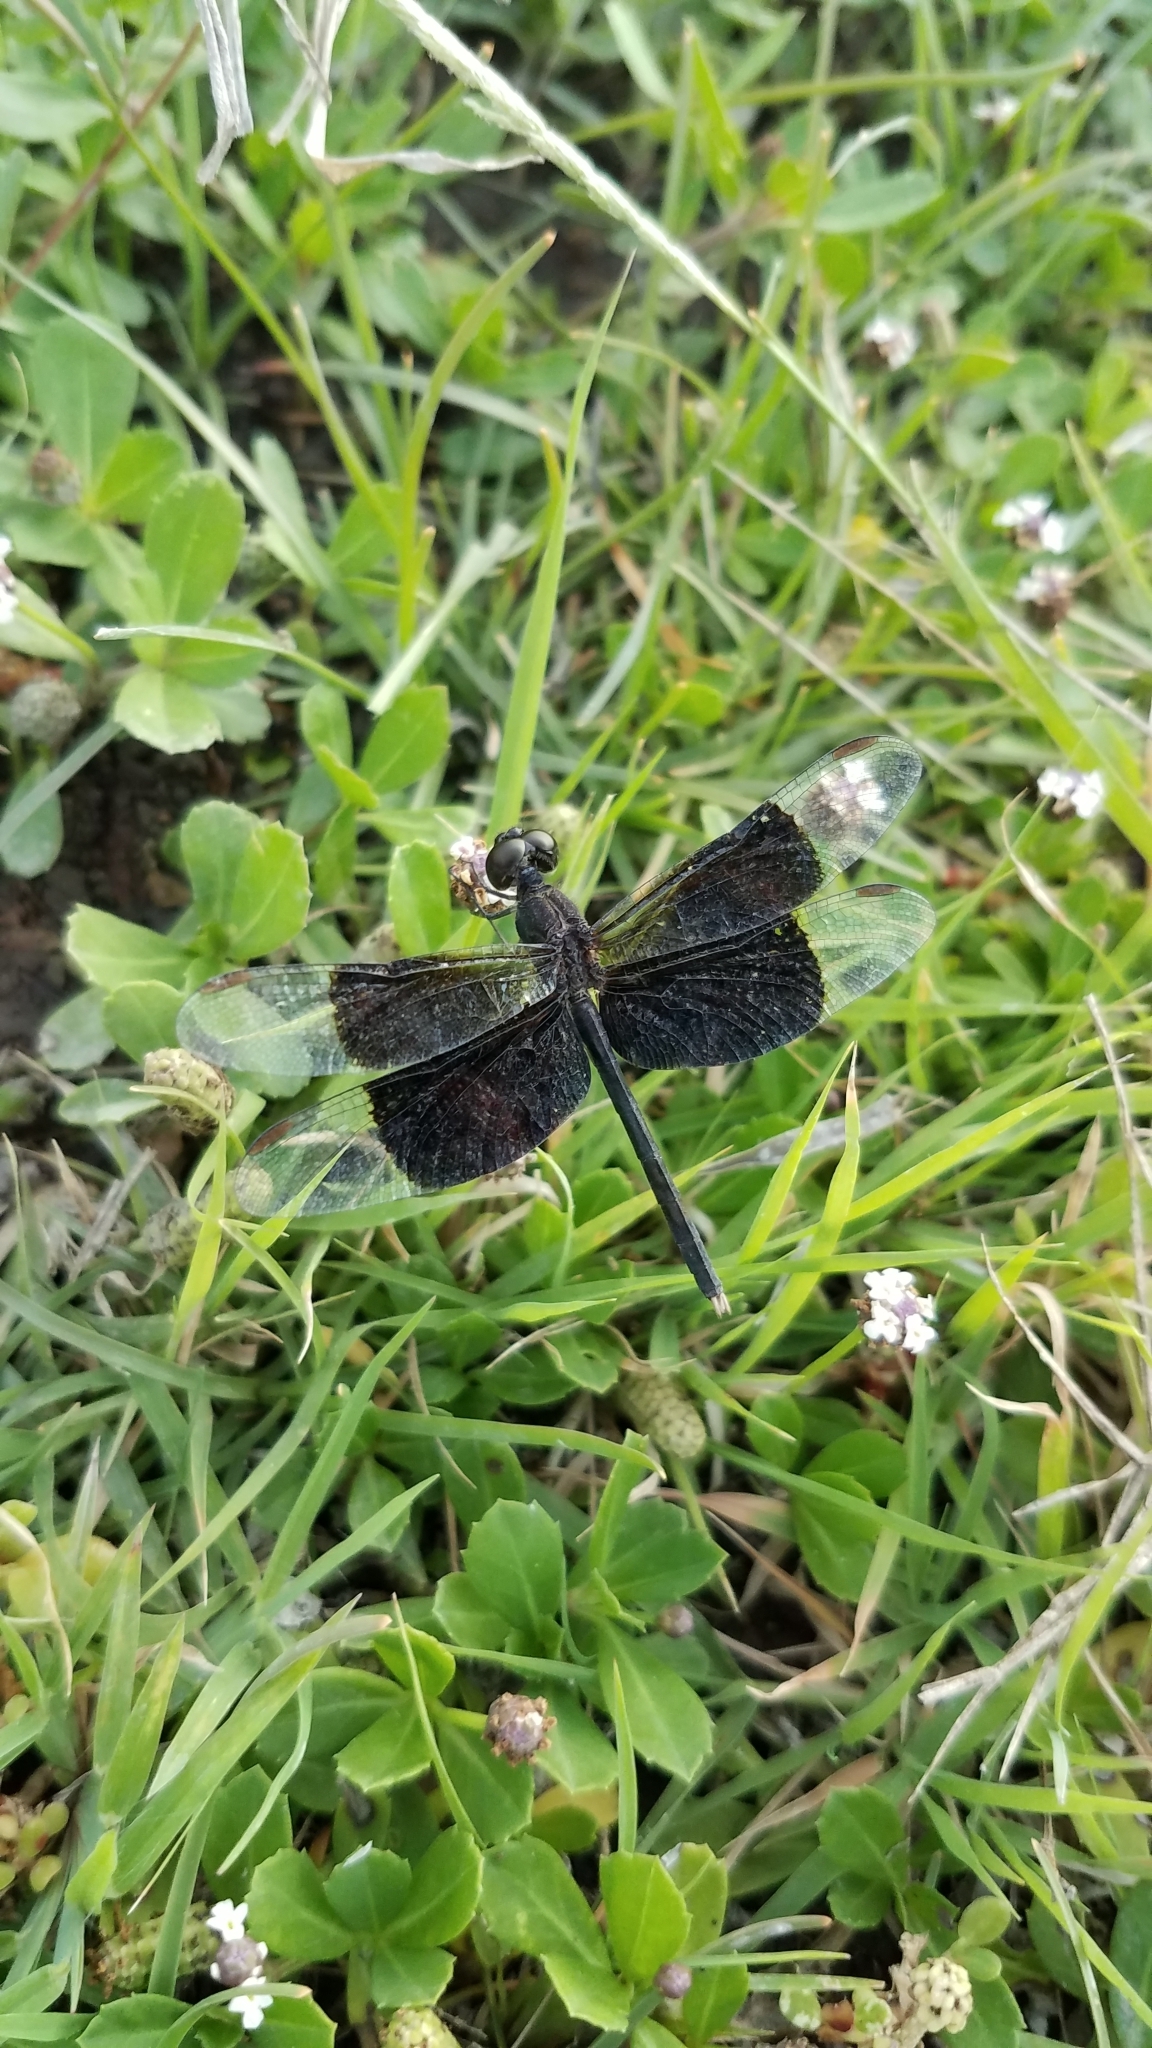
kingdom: Animalia
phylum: Arthropoda
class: Insecta
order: Odonata
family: Libellulidae
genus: Erythrodiplax
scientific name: Erythrodiplax funerea
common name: Black-winged dragonlet
